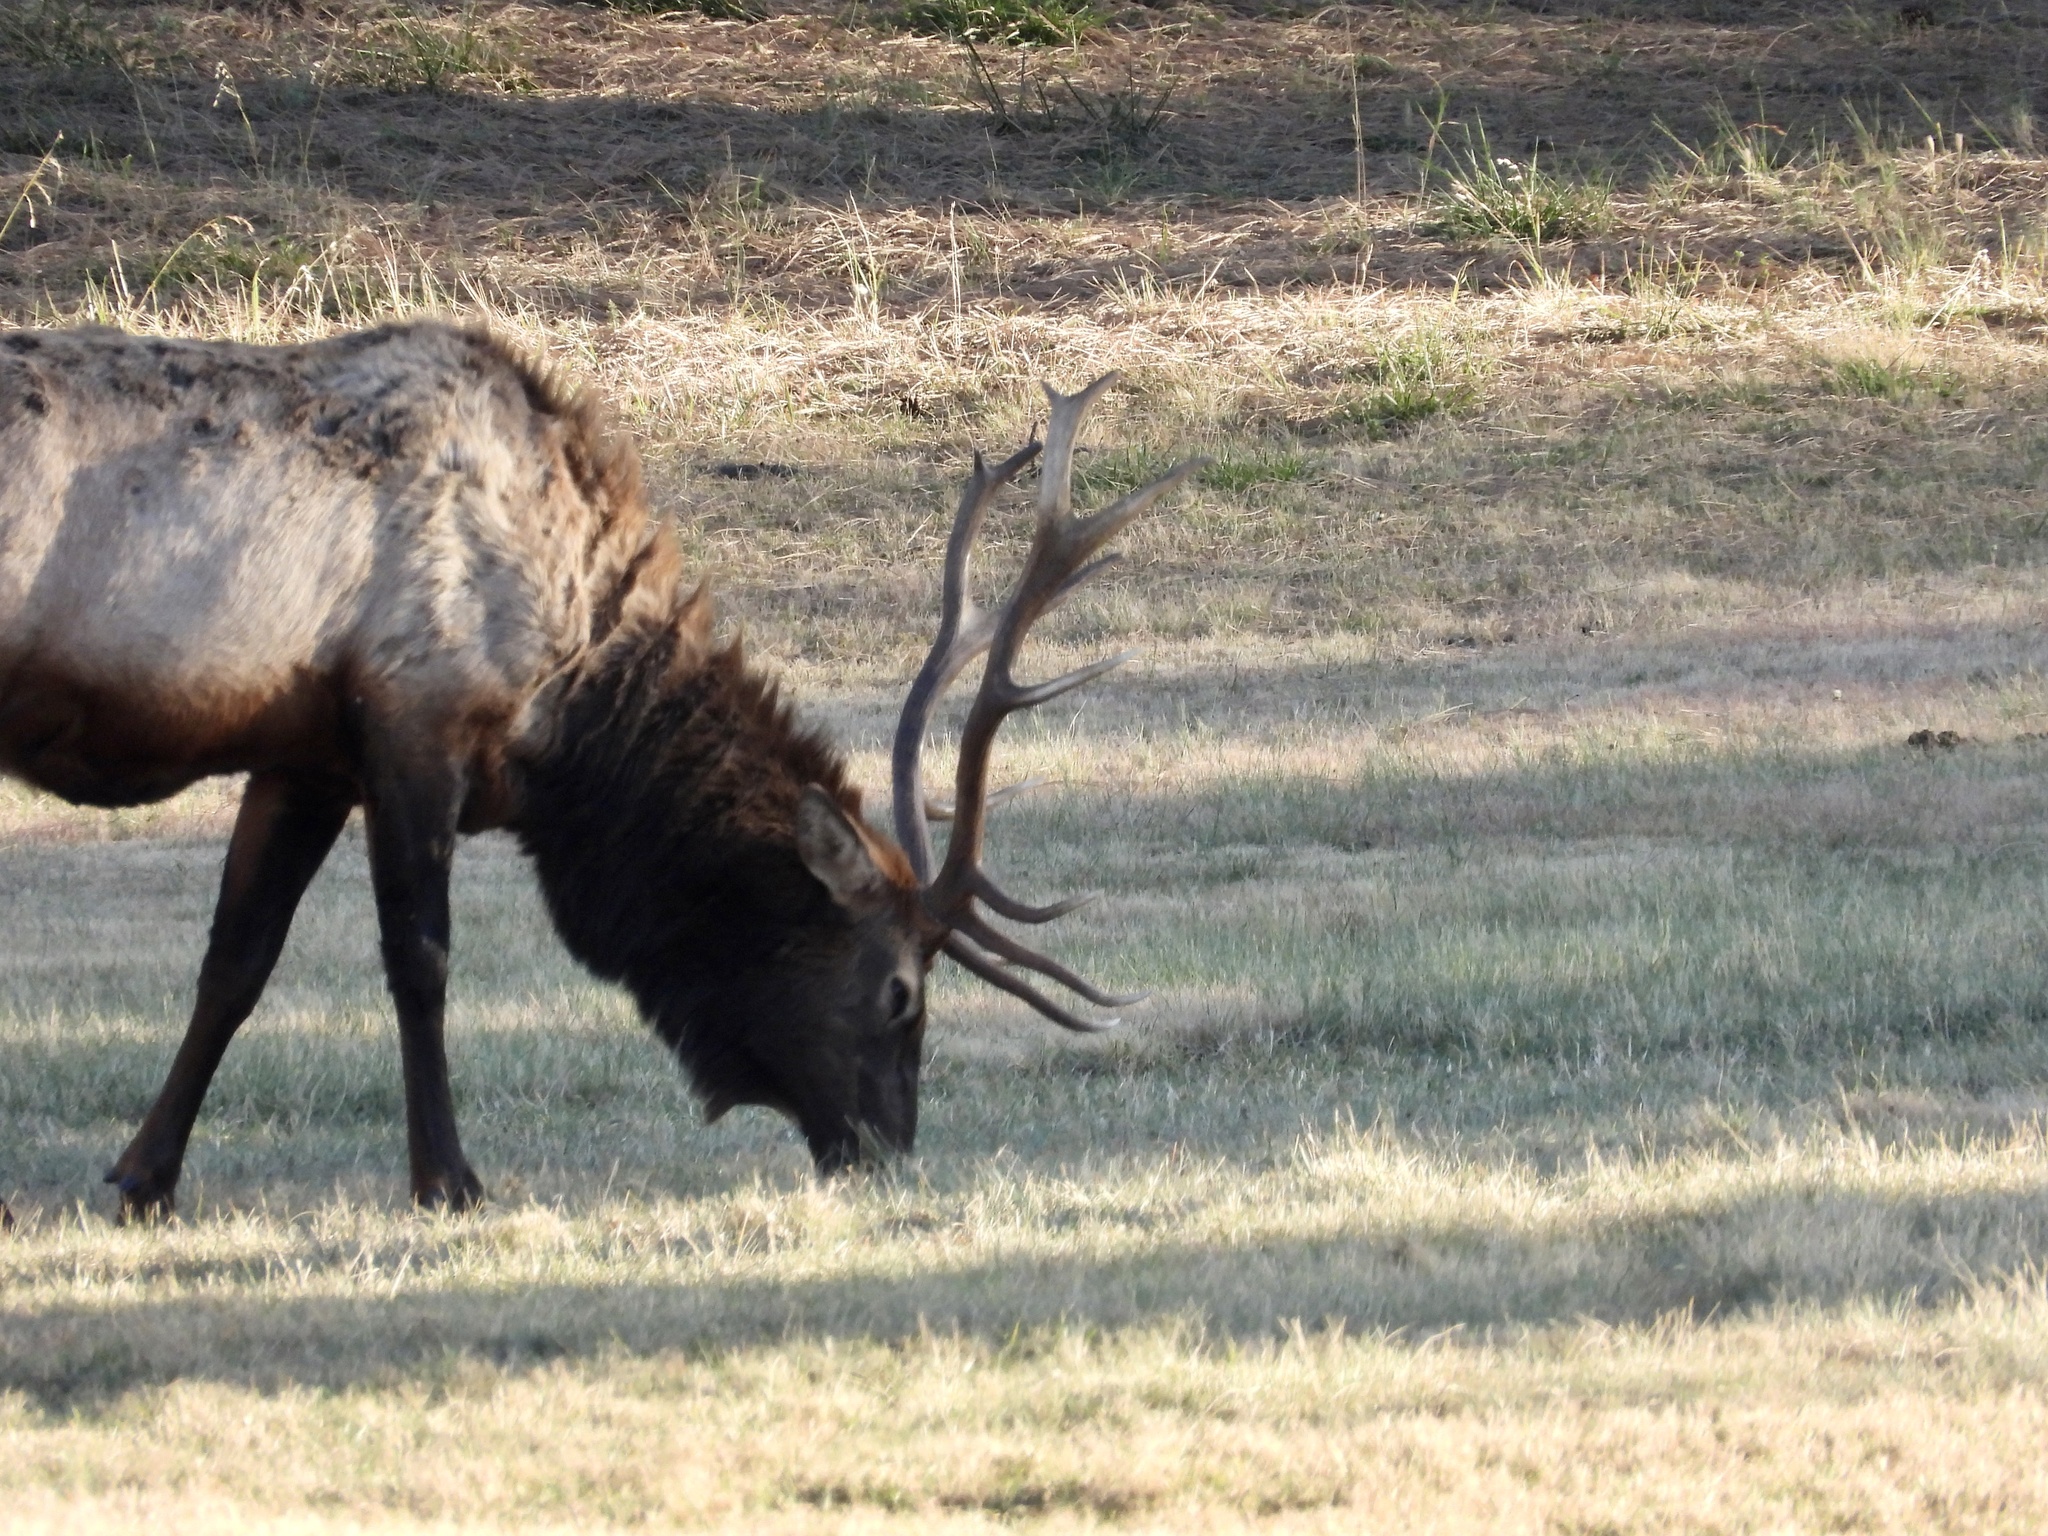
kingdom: Animalia
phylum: Chordata
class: Mammalia
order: Artiodactyla
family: Cervidae
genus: Cervus
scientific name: Cervus elaphus
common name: Red deer
